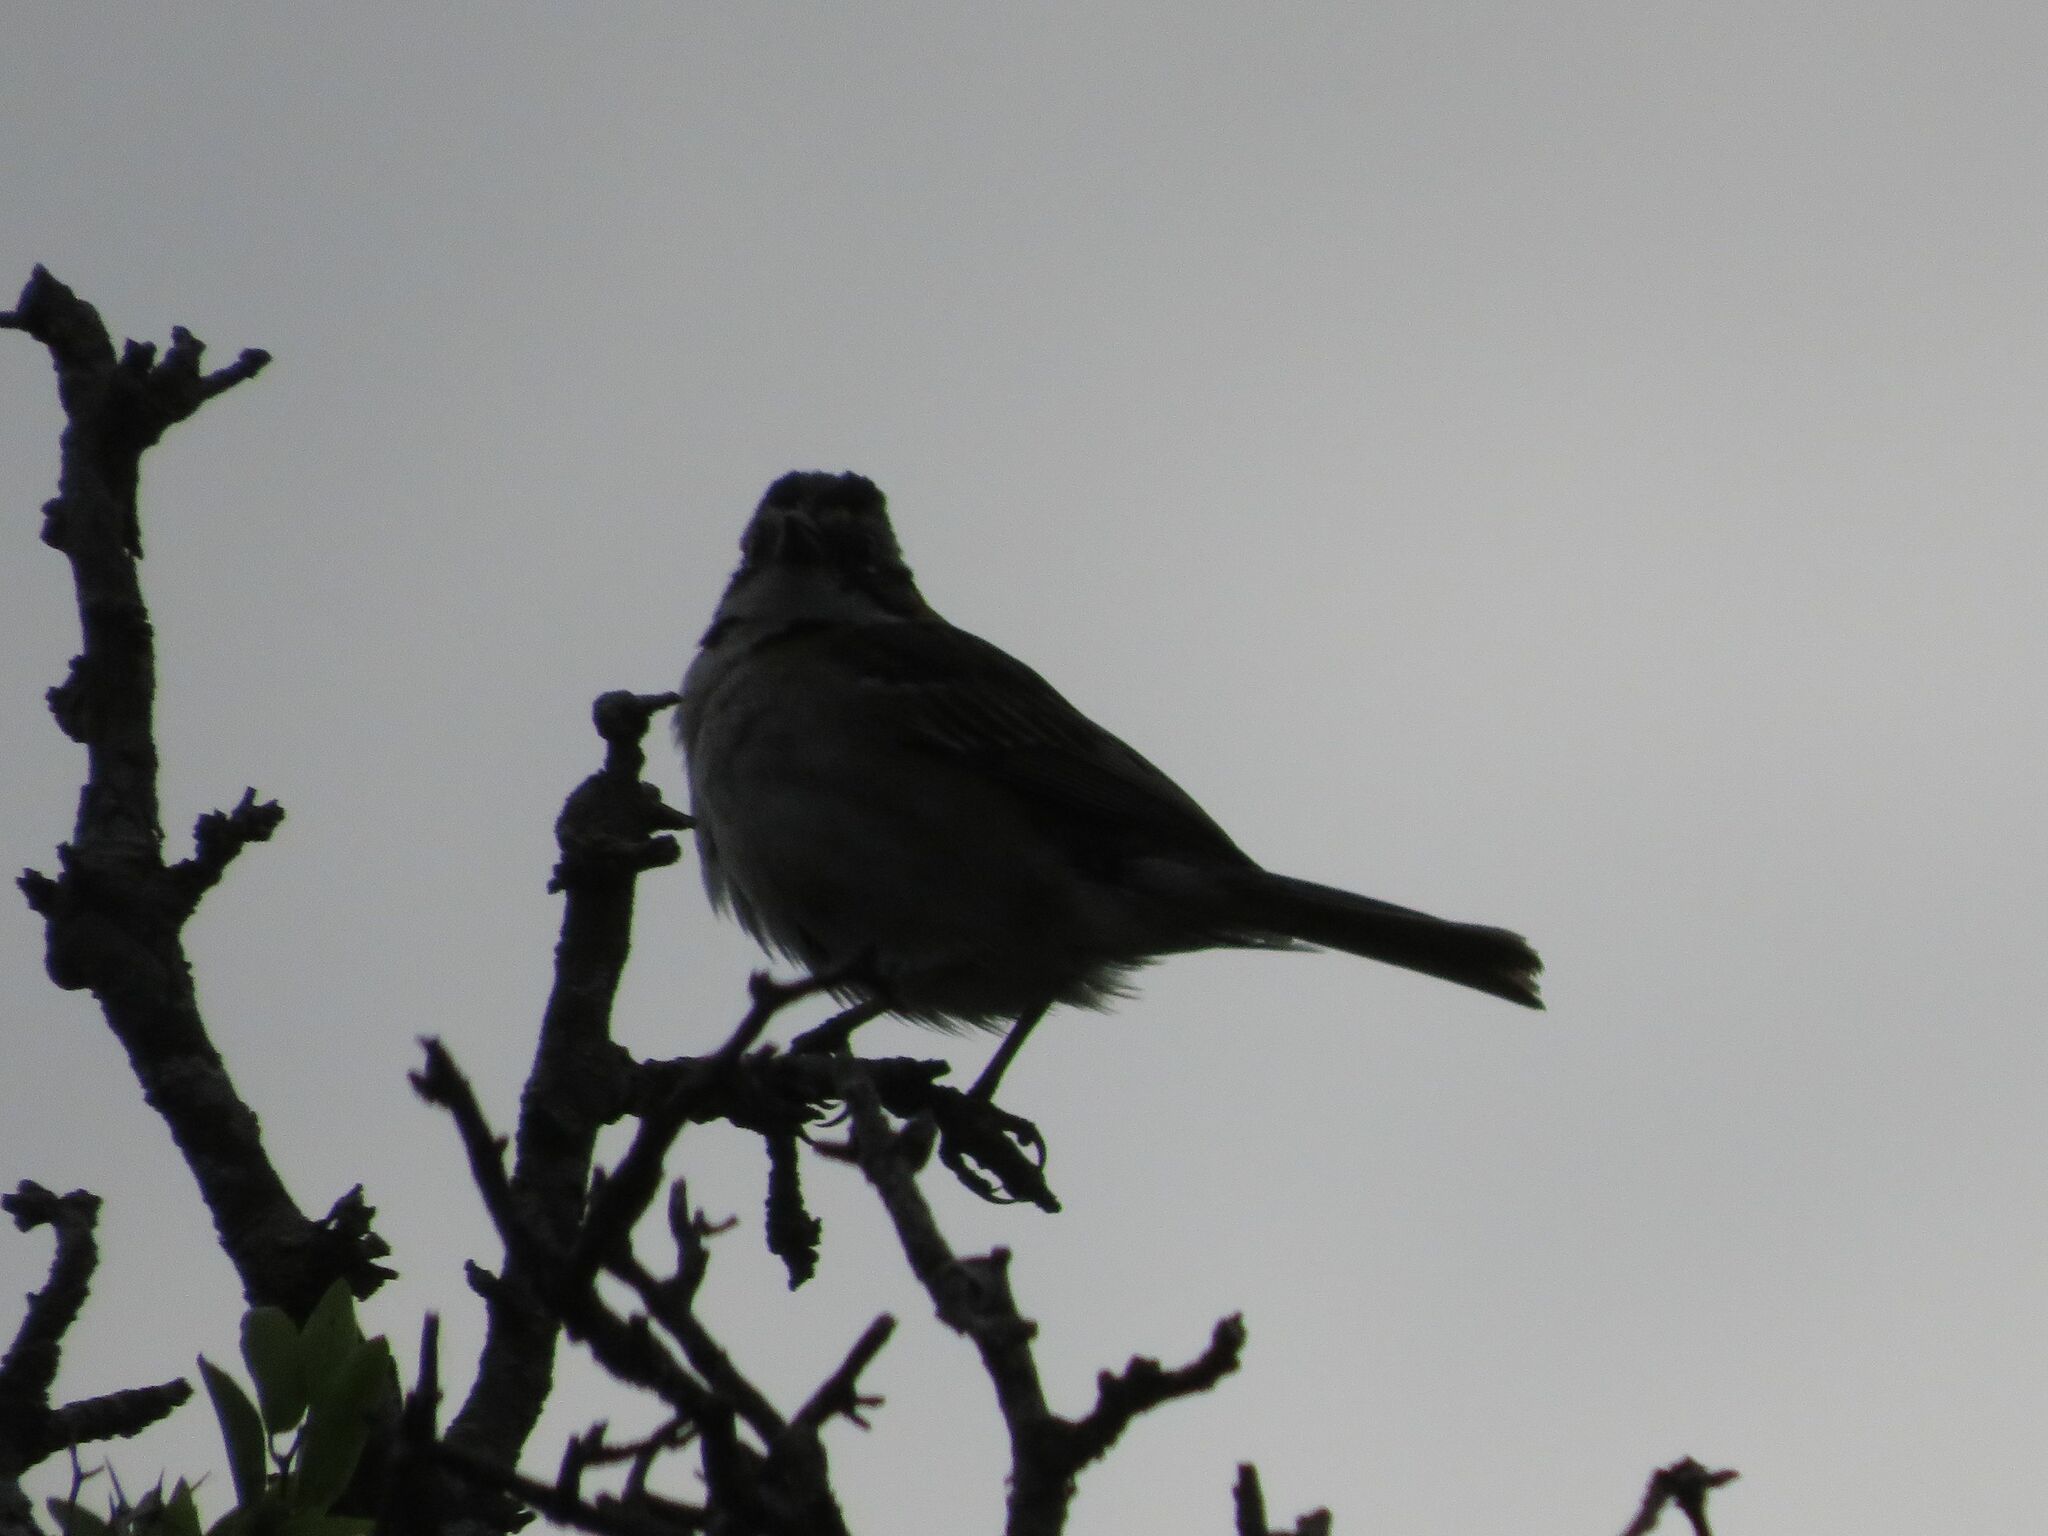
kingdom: Animalia
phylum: Chordata
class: Aves
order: Passeriformes
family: Passerellidae
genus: Zonotrichia
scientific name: Zonotrichia capensis
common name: Rufous-collared sparrow
